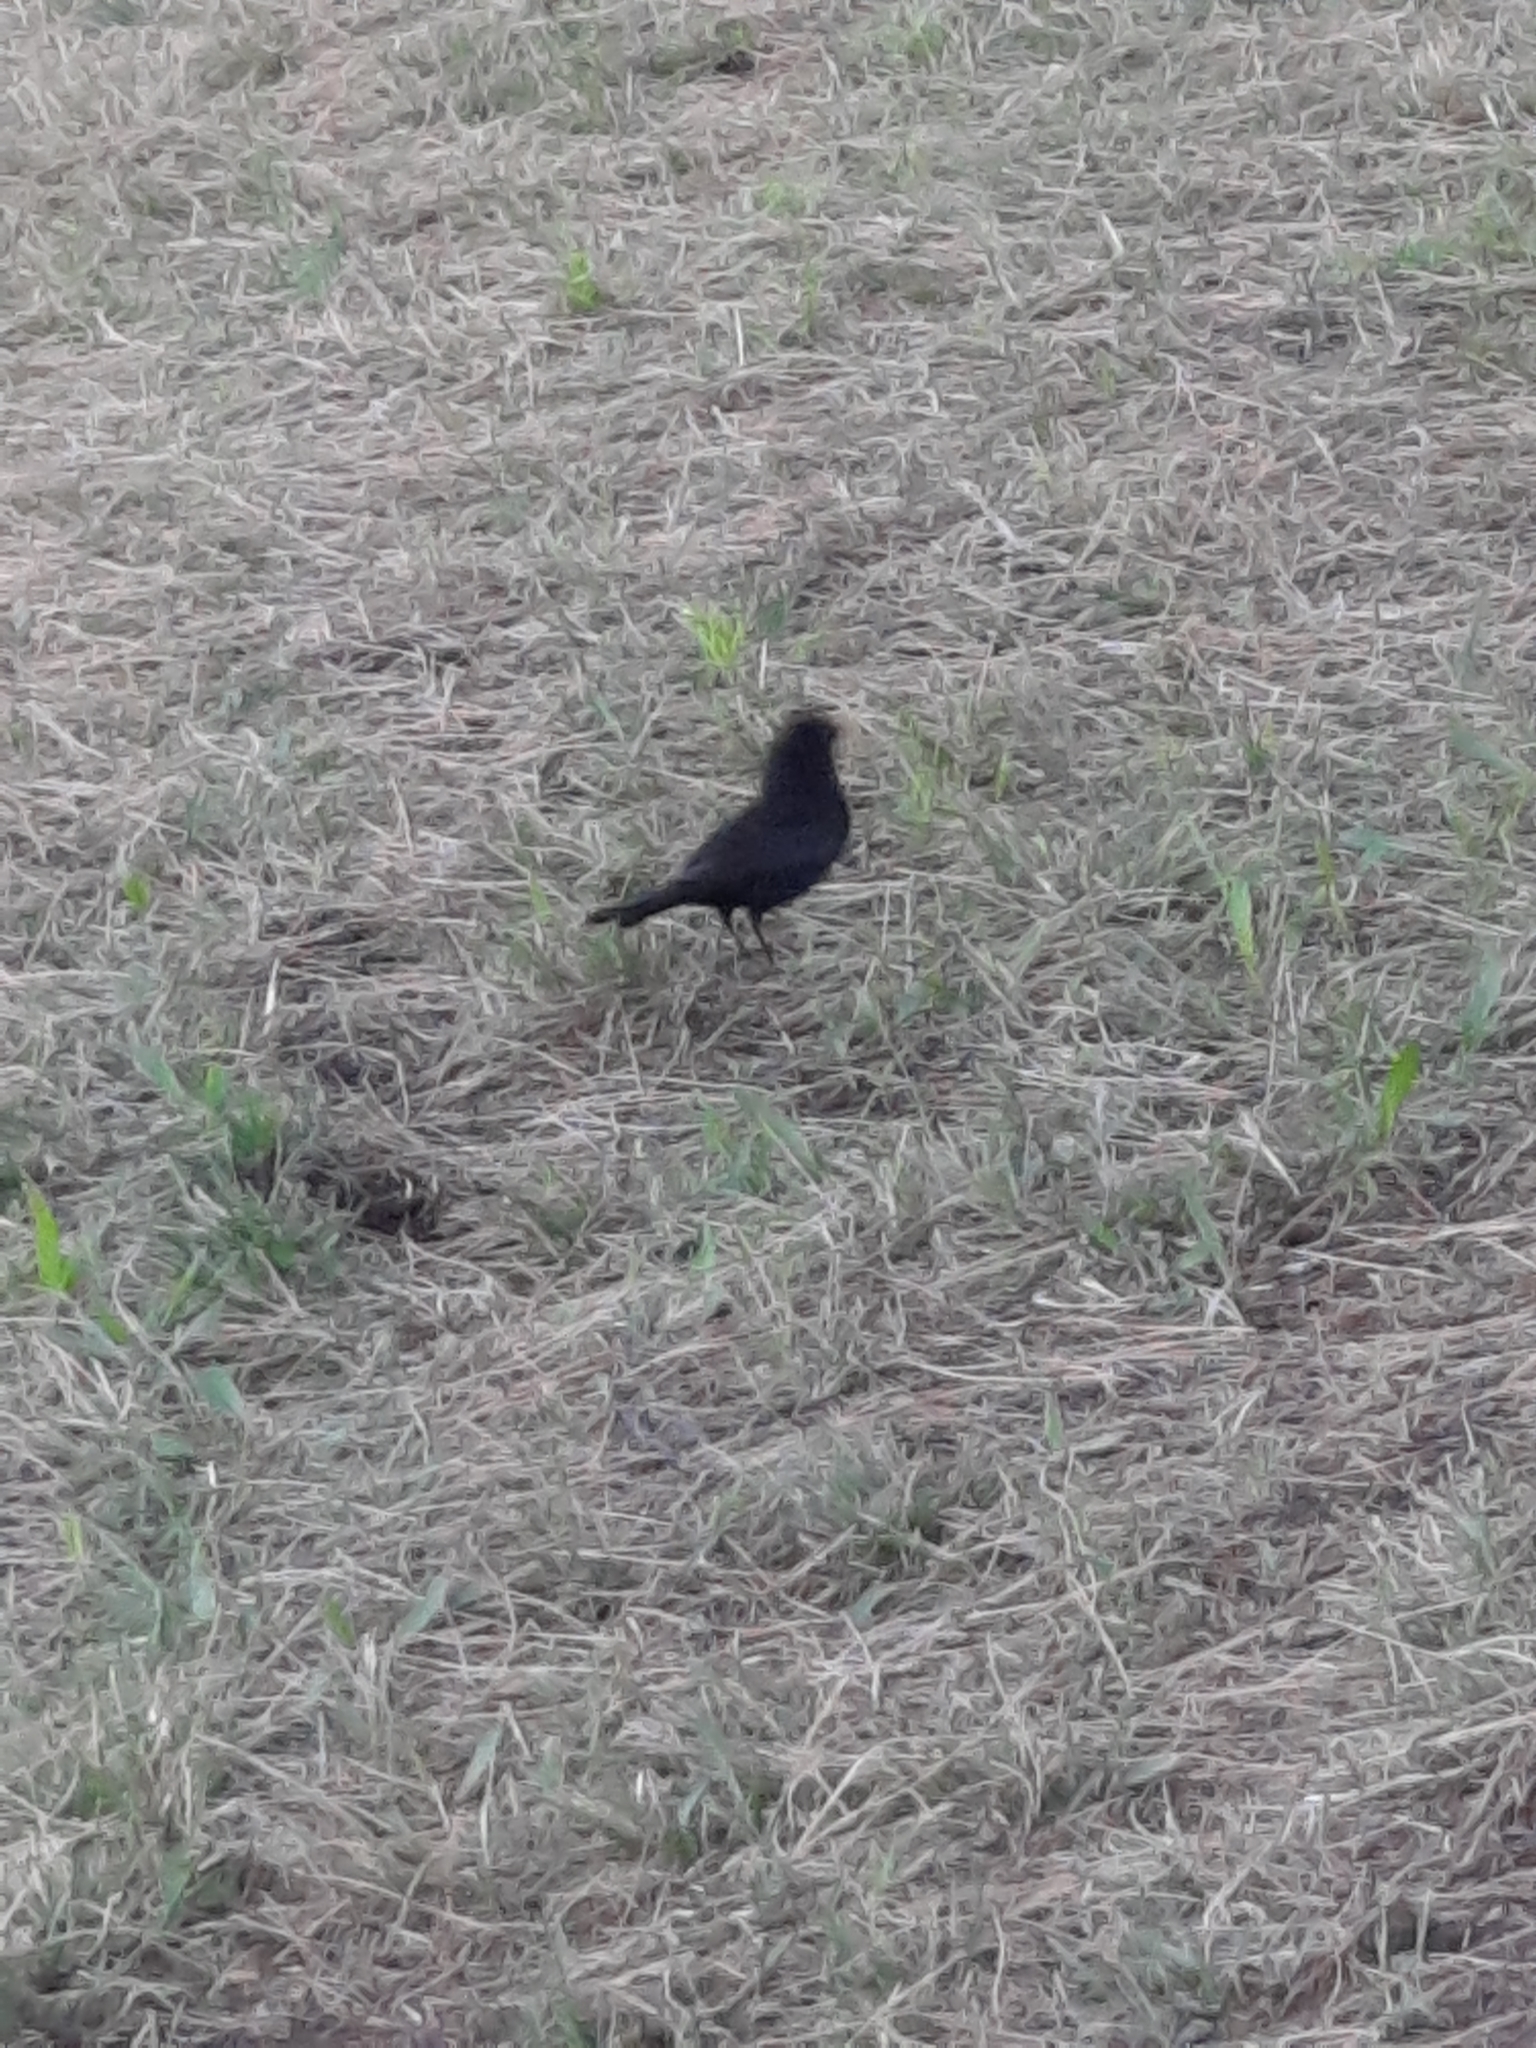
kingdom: Animalia
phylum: Chordata
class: Aves
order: Passeriformes
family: Turdidae
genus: Turdus
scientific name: Turdus merula
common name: Common blackbird
